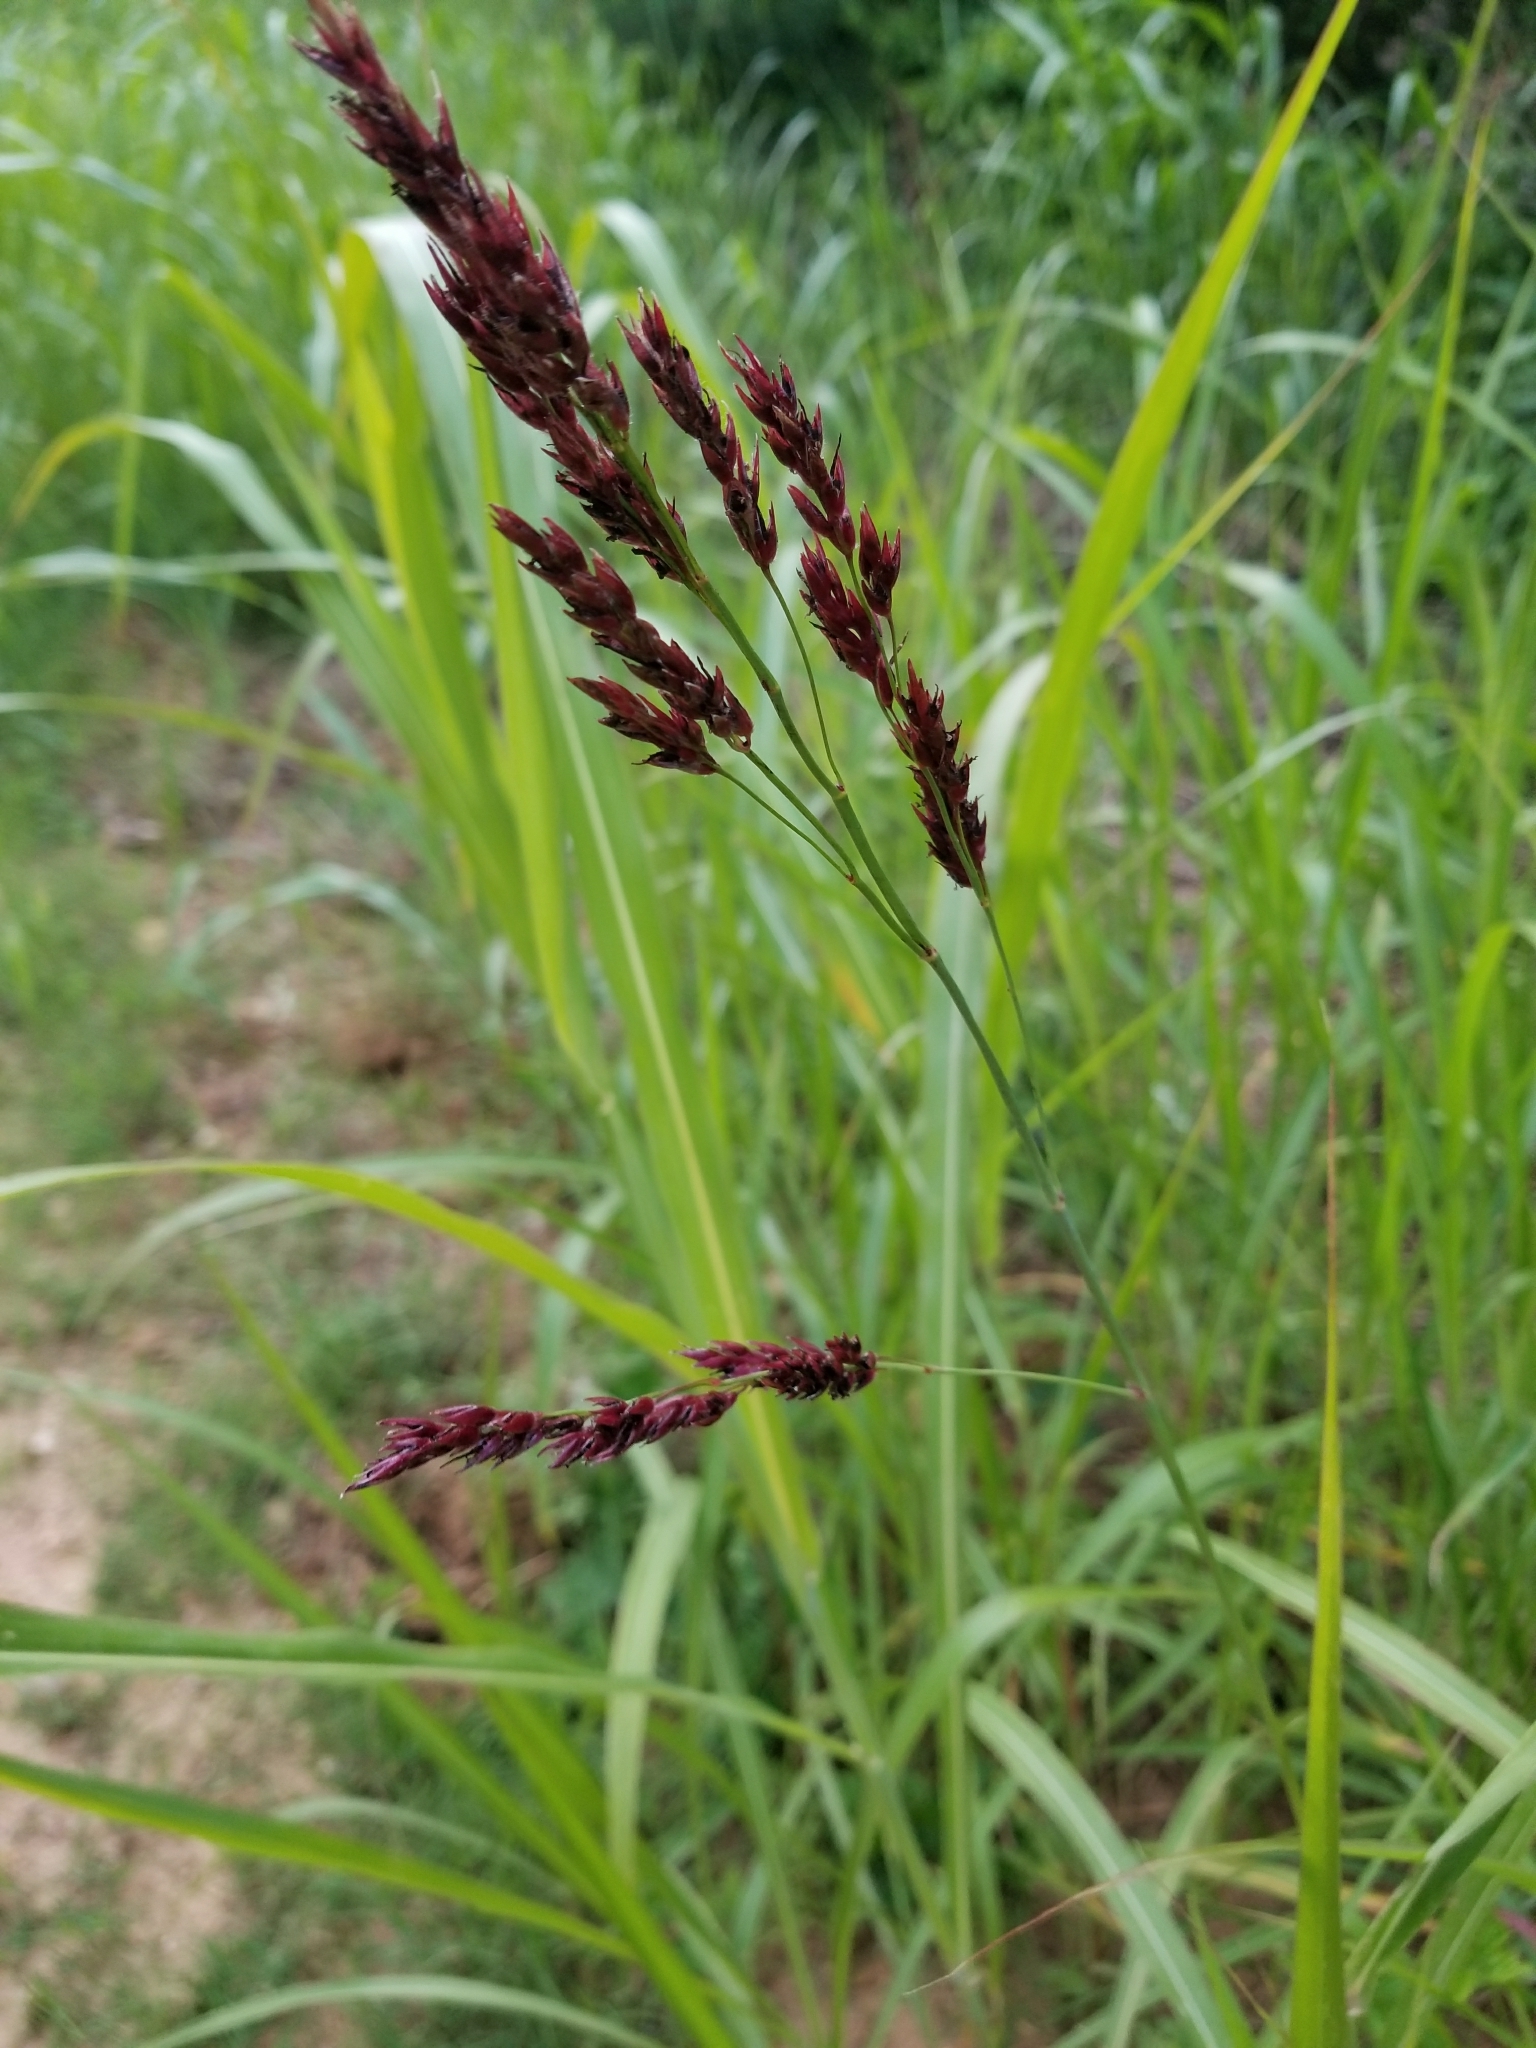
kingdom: Plantae
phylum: Tracheophyta
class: Liliopsida
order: Poales
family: Poaceae
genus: Sorghum
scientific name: Sorghum halepense
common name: Johnson-grass
